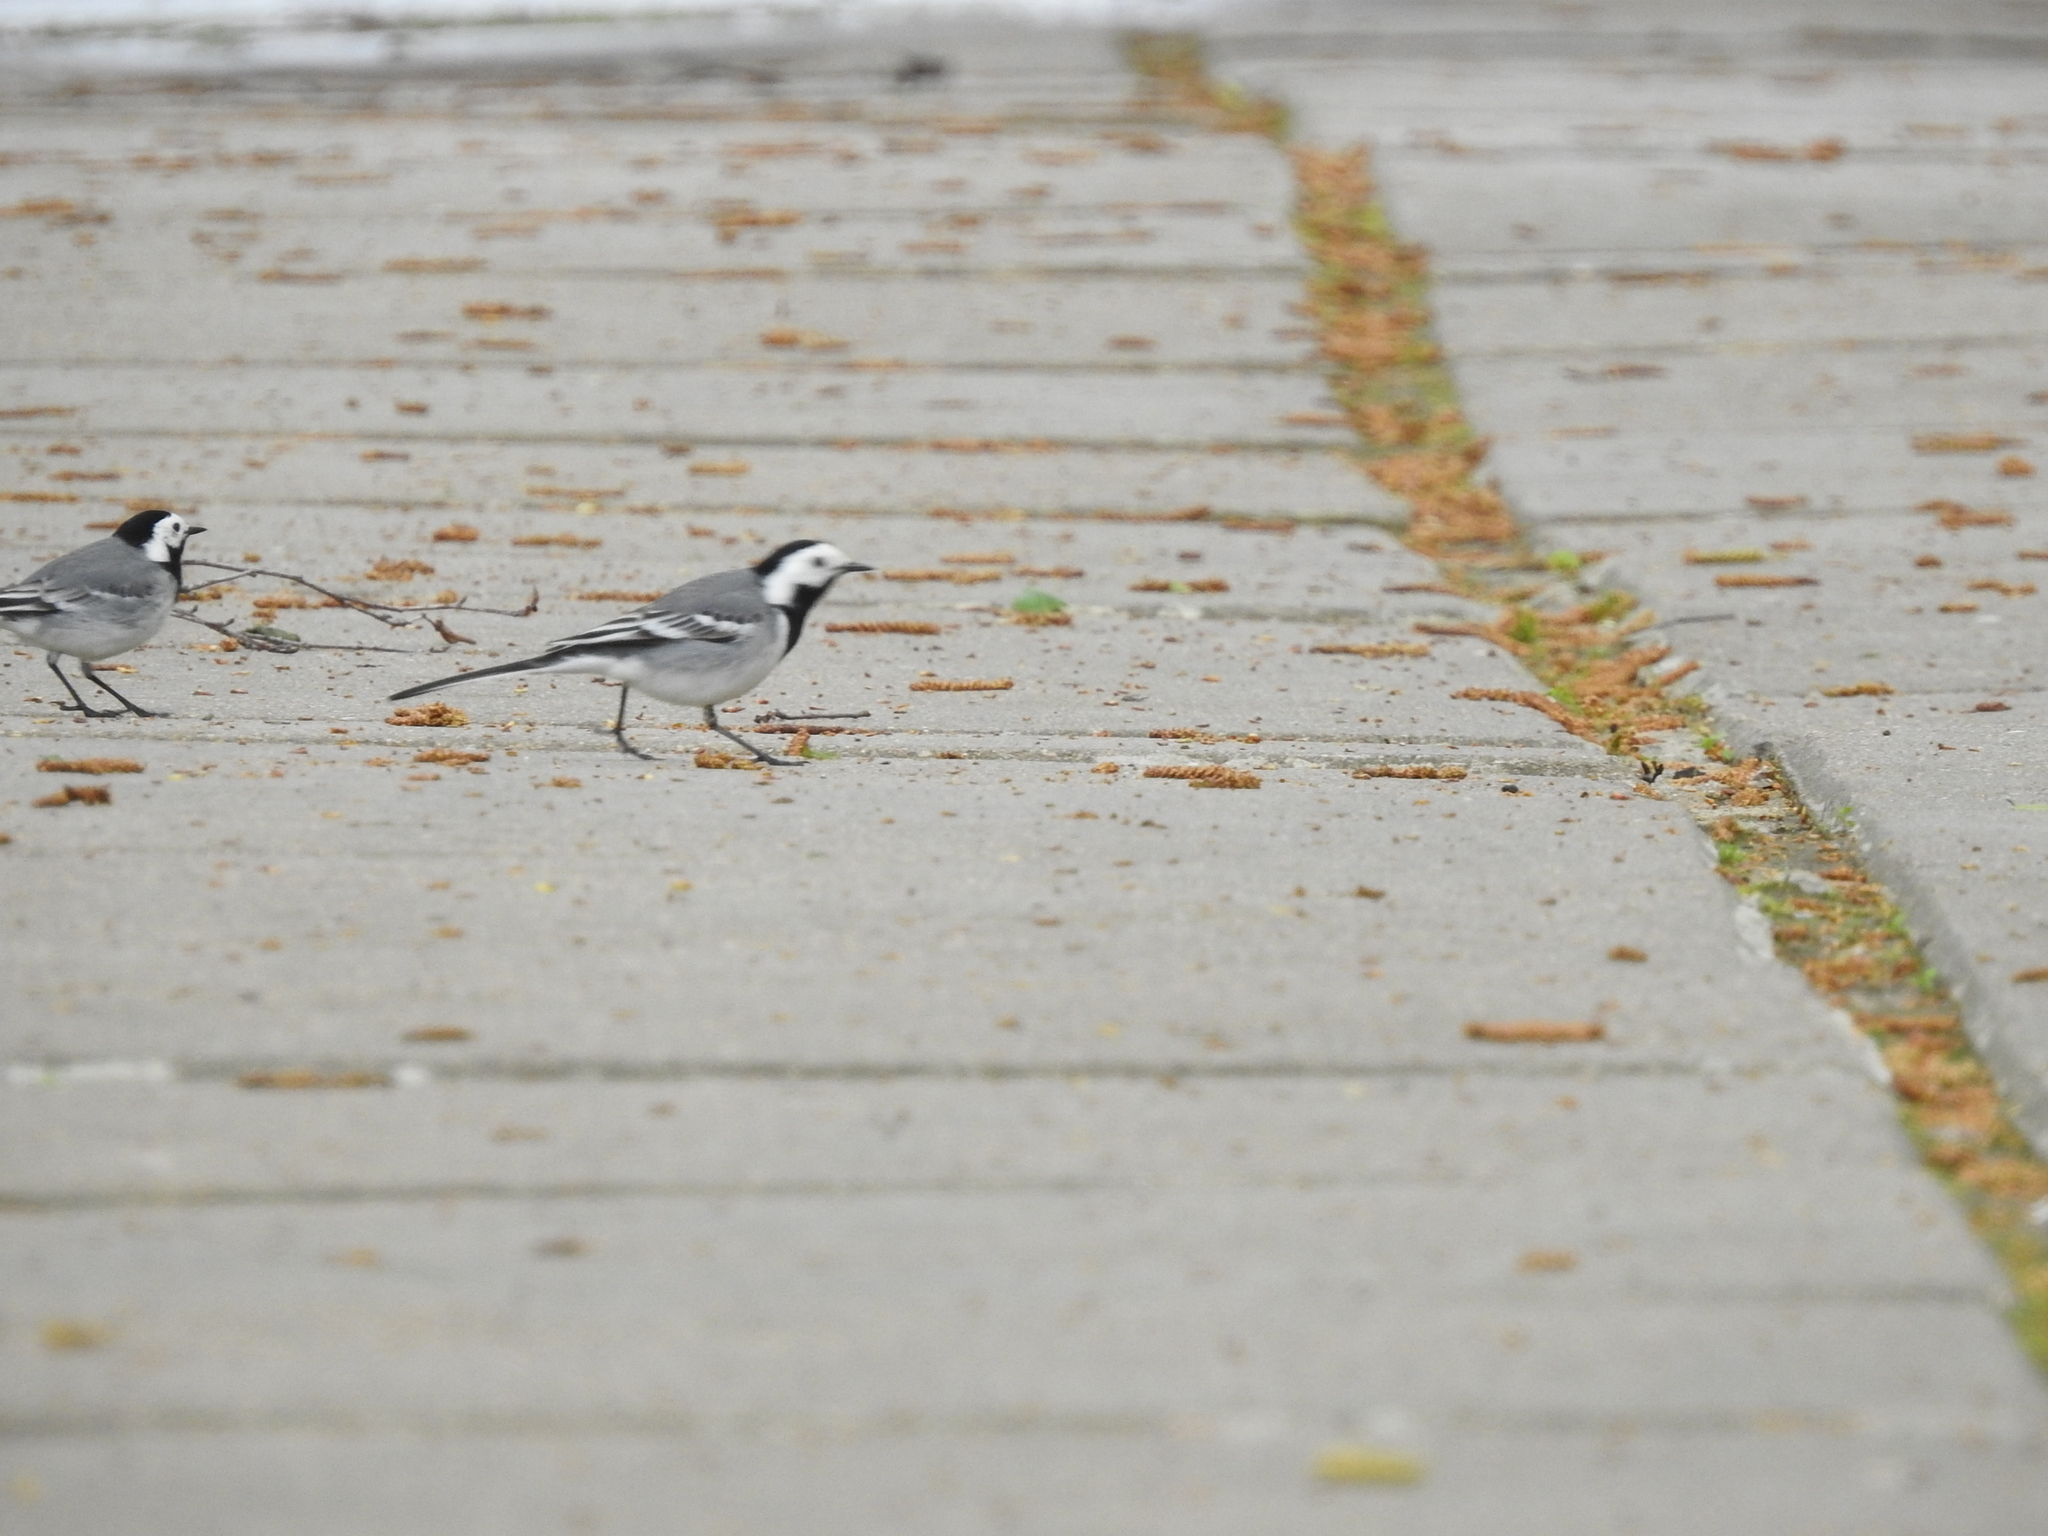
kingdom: Animalia
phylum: Chordata
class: Aves
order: Passeriformes
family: Motacillidae
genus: Motacilla
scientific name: Motacilla alba
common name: White wagtail
